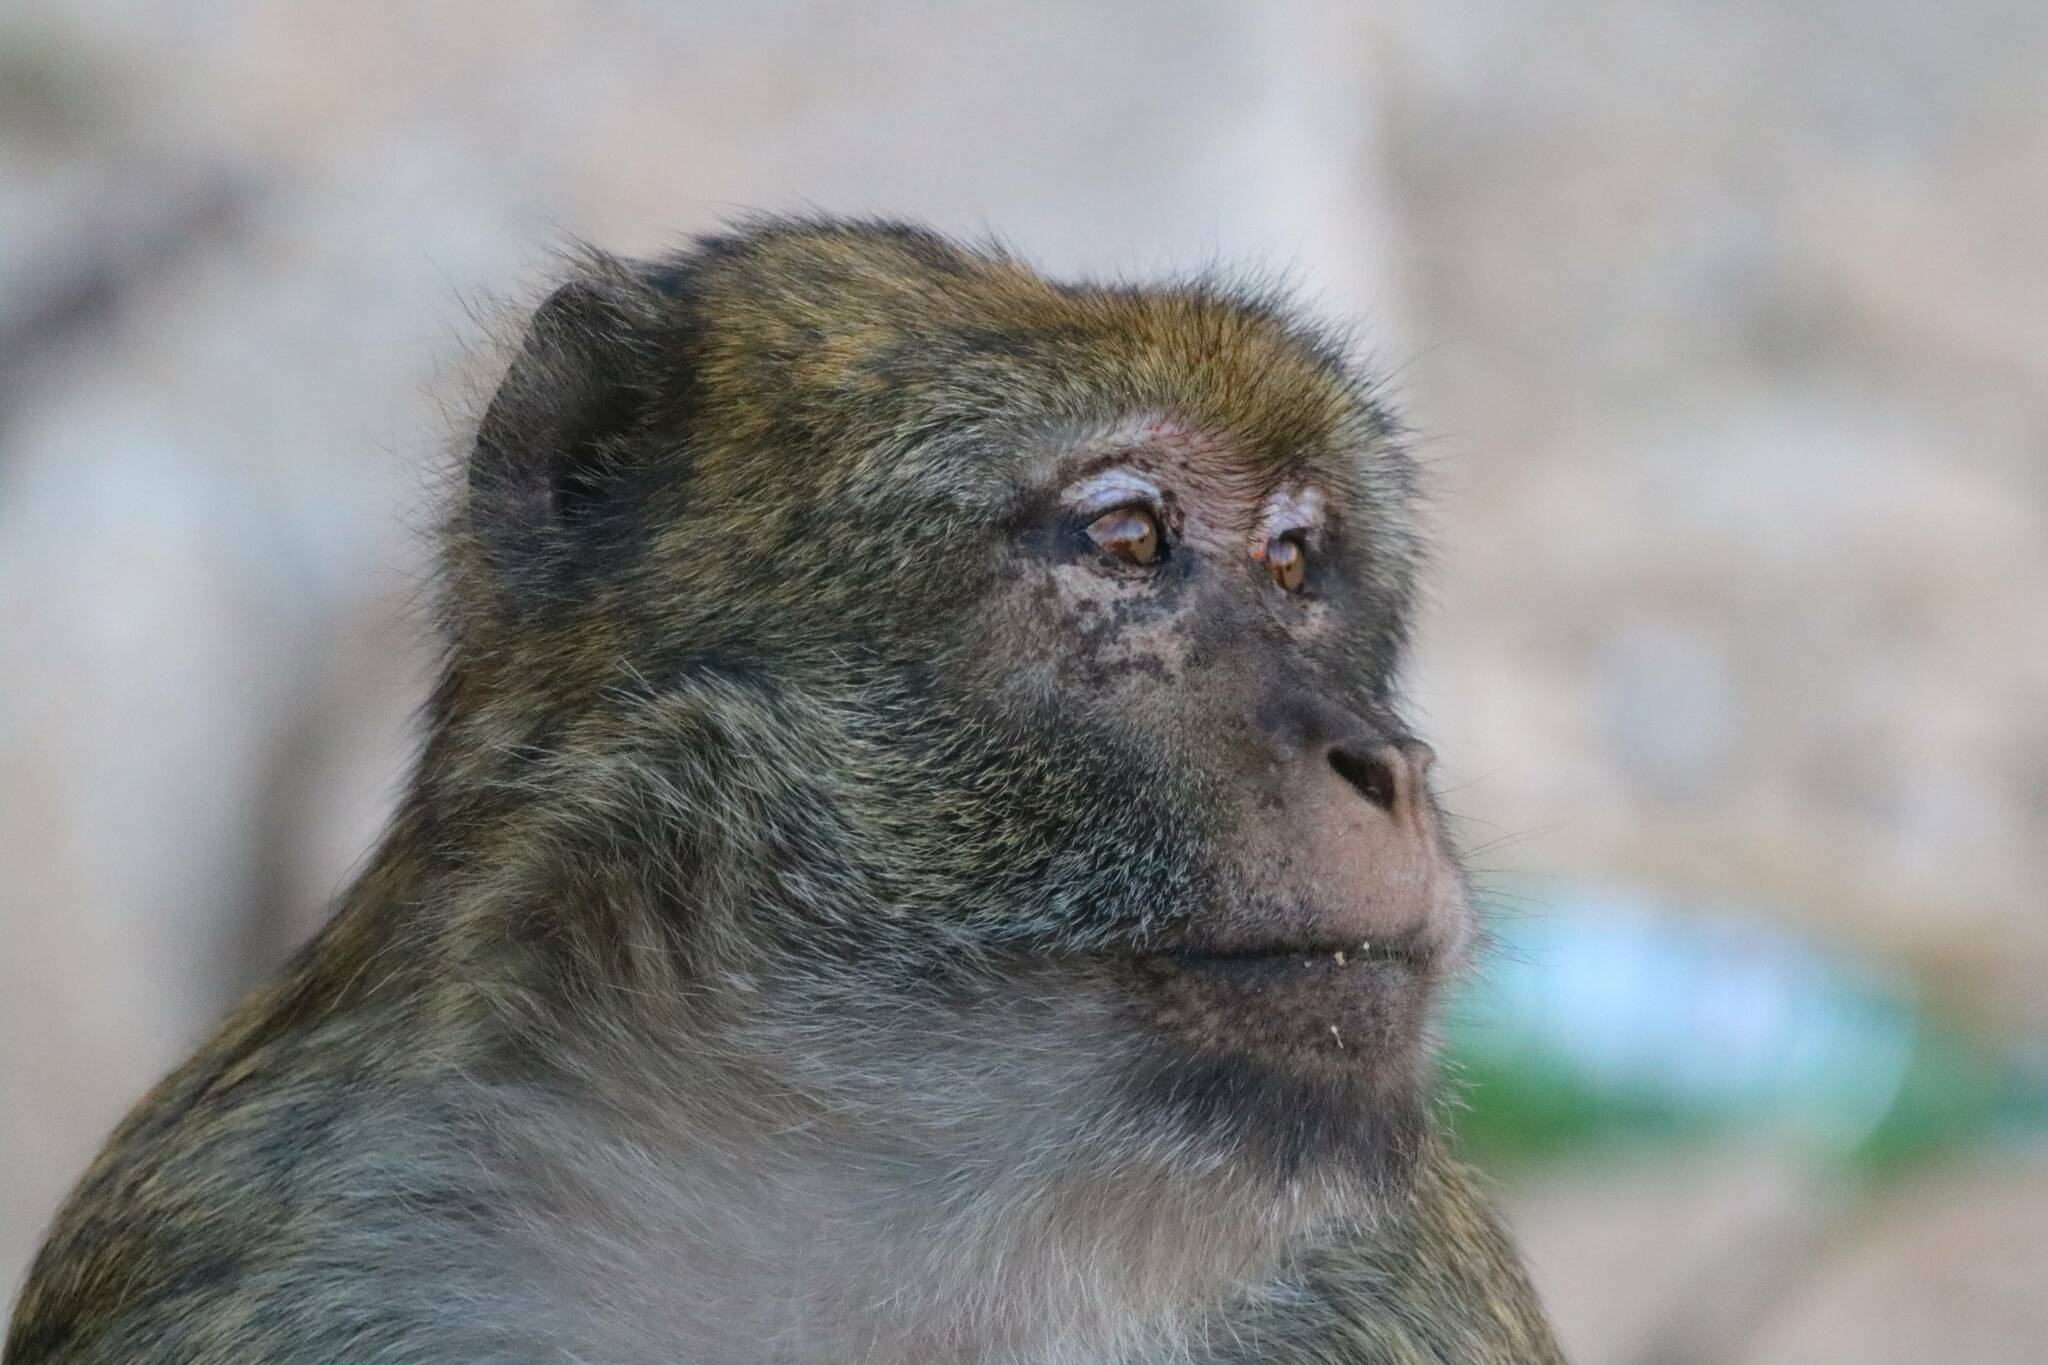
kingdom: Animalia
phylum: Chordata
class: Mammalia
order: Primates
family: Cercopithecidae
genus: Macaca
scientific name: Macaca sylvanus
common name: Barbary macaque
